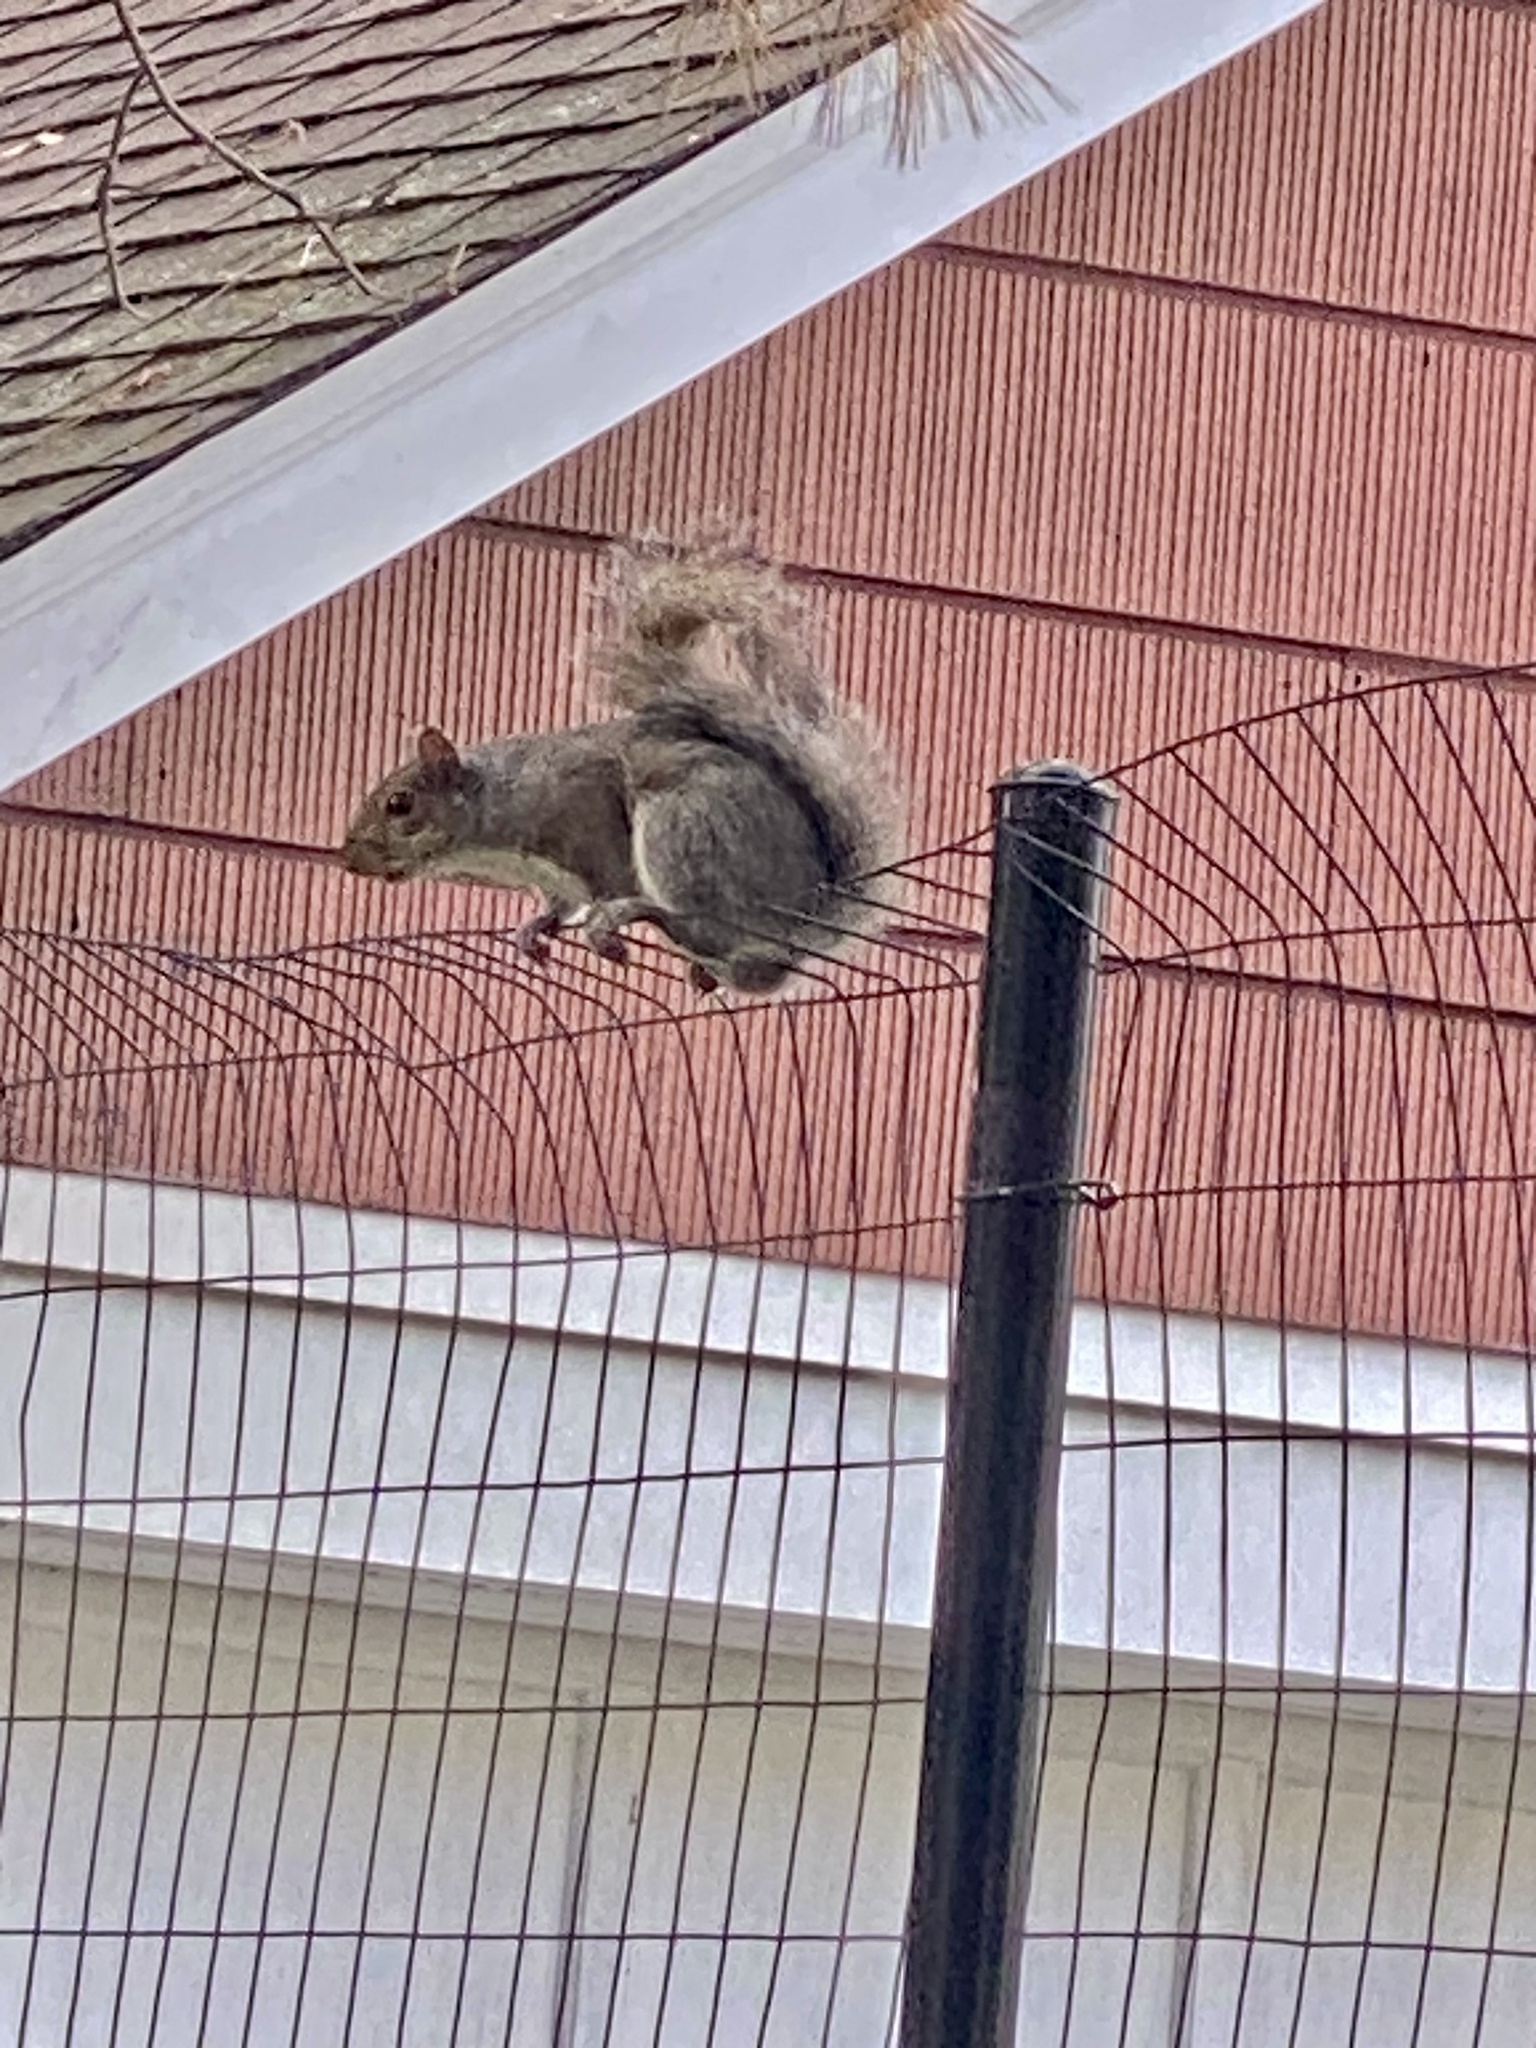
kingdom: Animalia
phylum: Chordata
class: Mammalia
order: Rodentia
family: Sciuridae
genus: Sciurus
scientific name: Sciurus carolinensis
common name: Eastern gray squirrel
